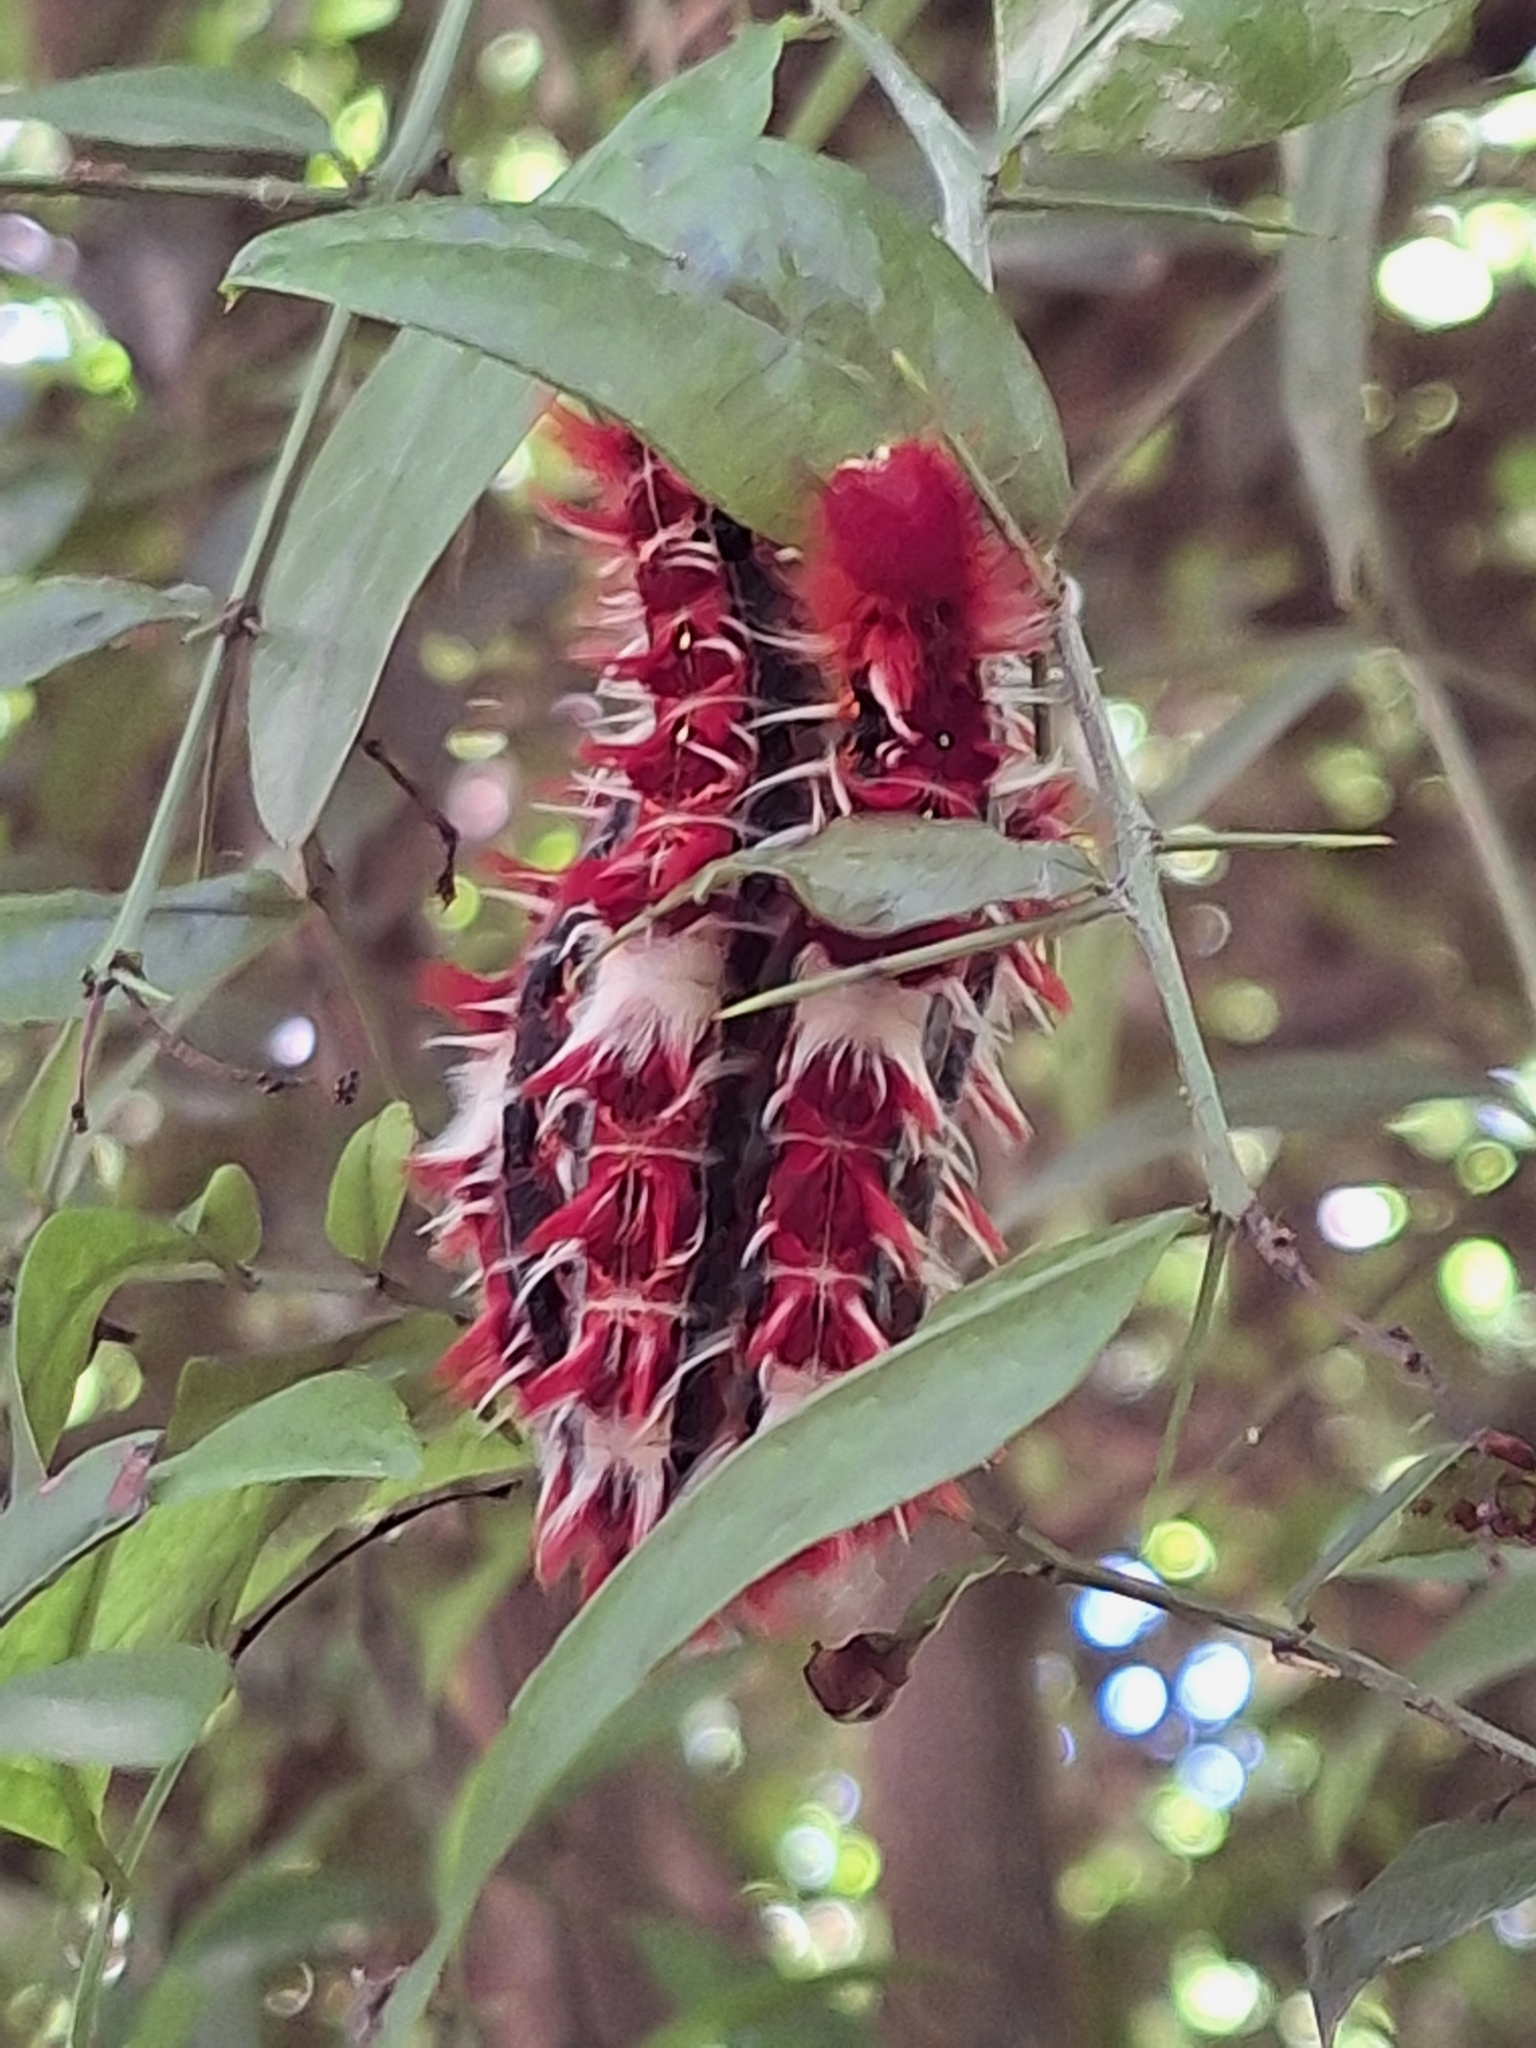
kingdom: Animalia
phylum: Arthropoda
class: Insecta
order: Lepidoptera
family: Nymphalidae
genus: Morpho
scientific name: Morpho epistrophus
